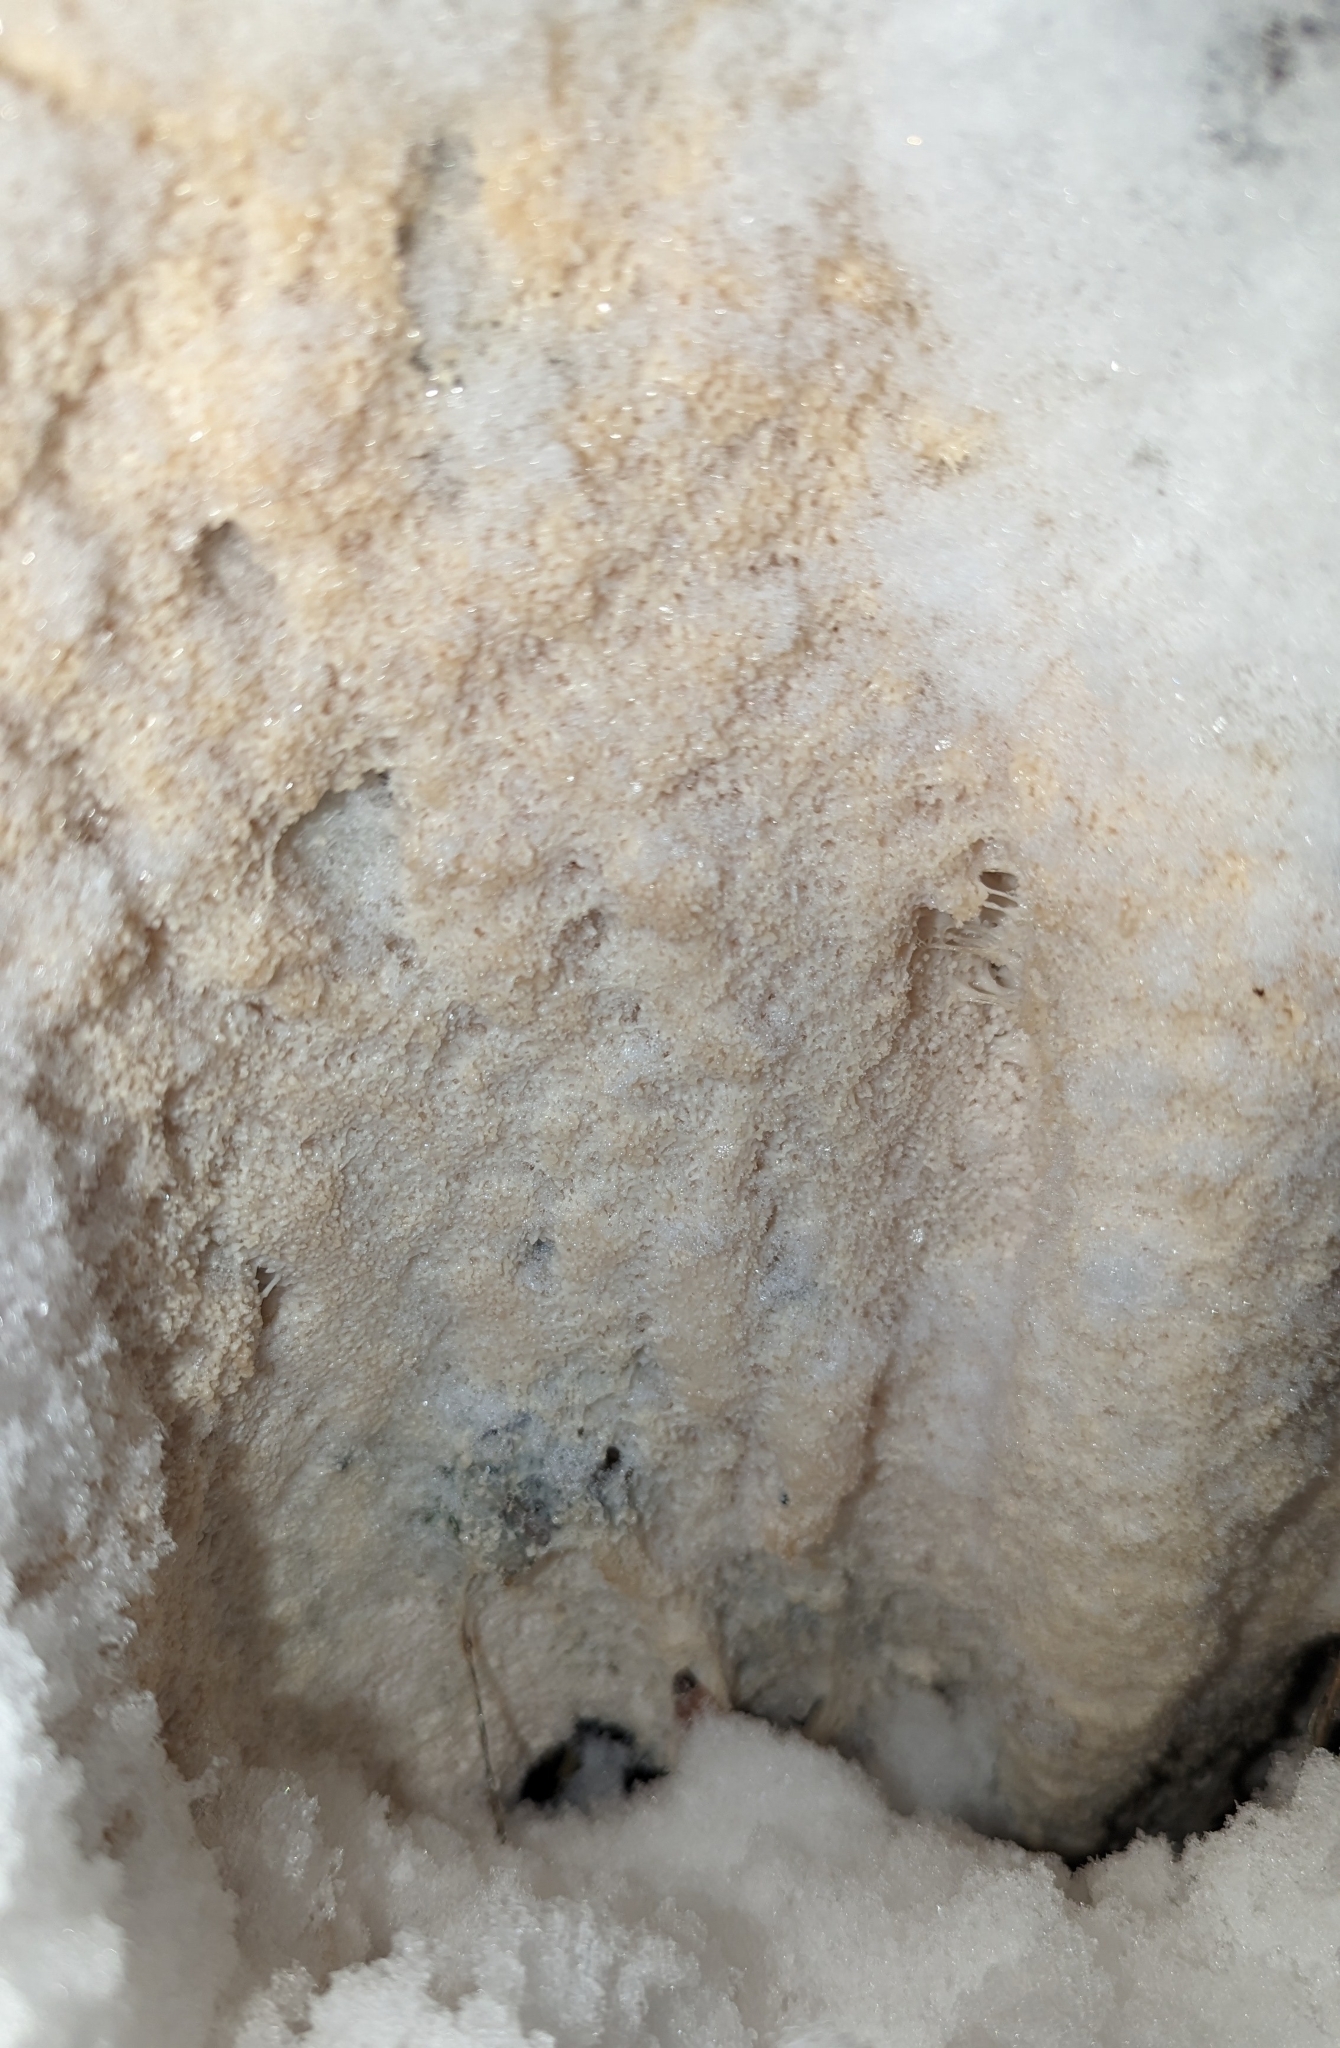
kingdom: Protozoa
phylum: Mycetozoa
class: Myxomycetes
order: Stemonitidales
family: Stemonitidaceae
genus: Brefeldia
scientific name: Brefeldia maxima
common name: Tapioca slime mold
